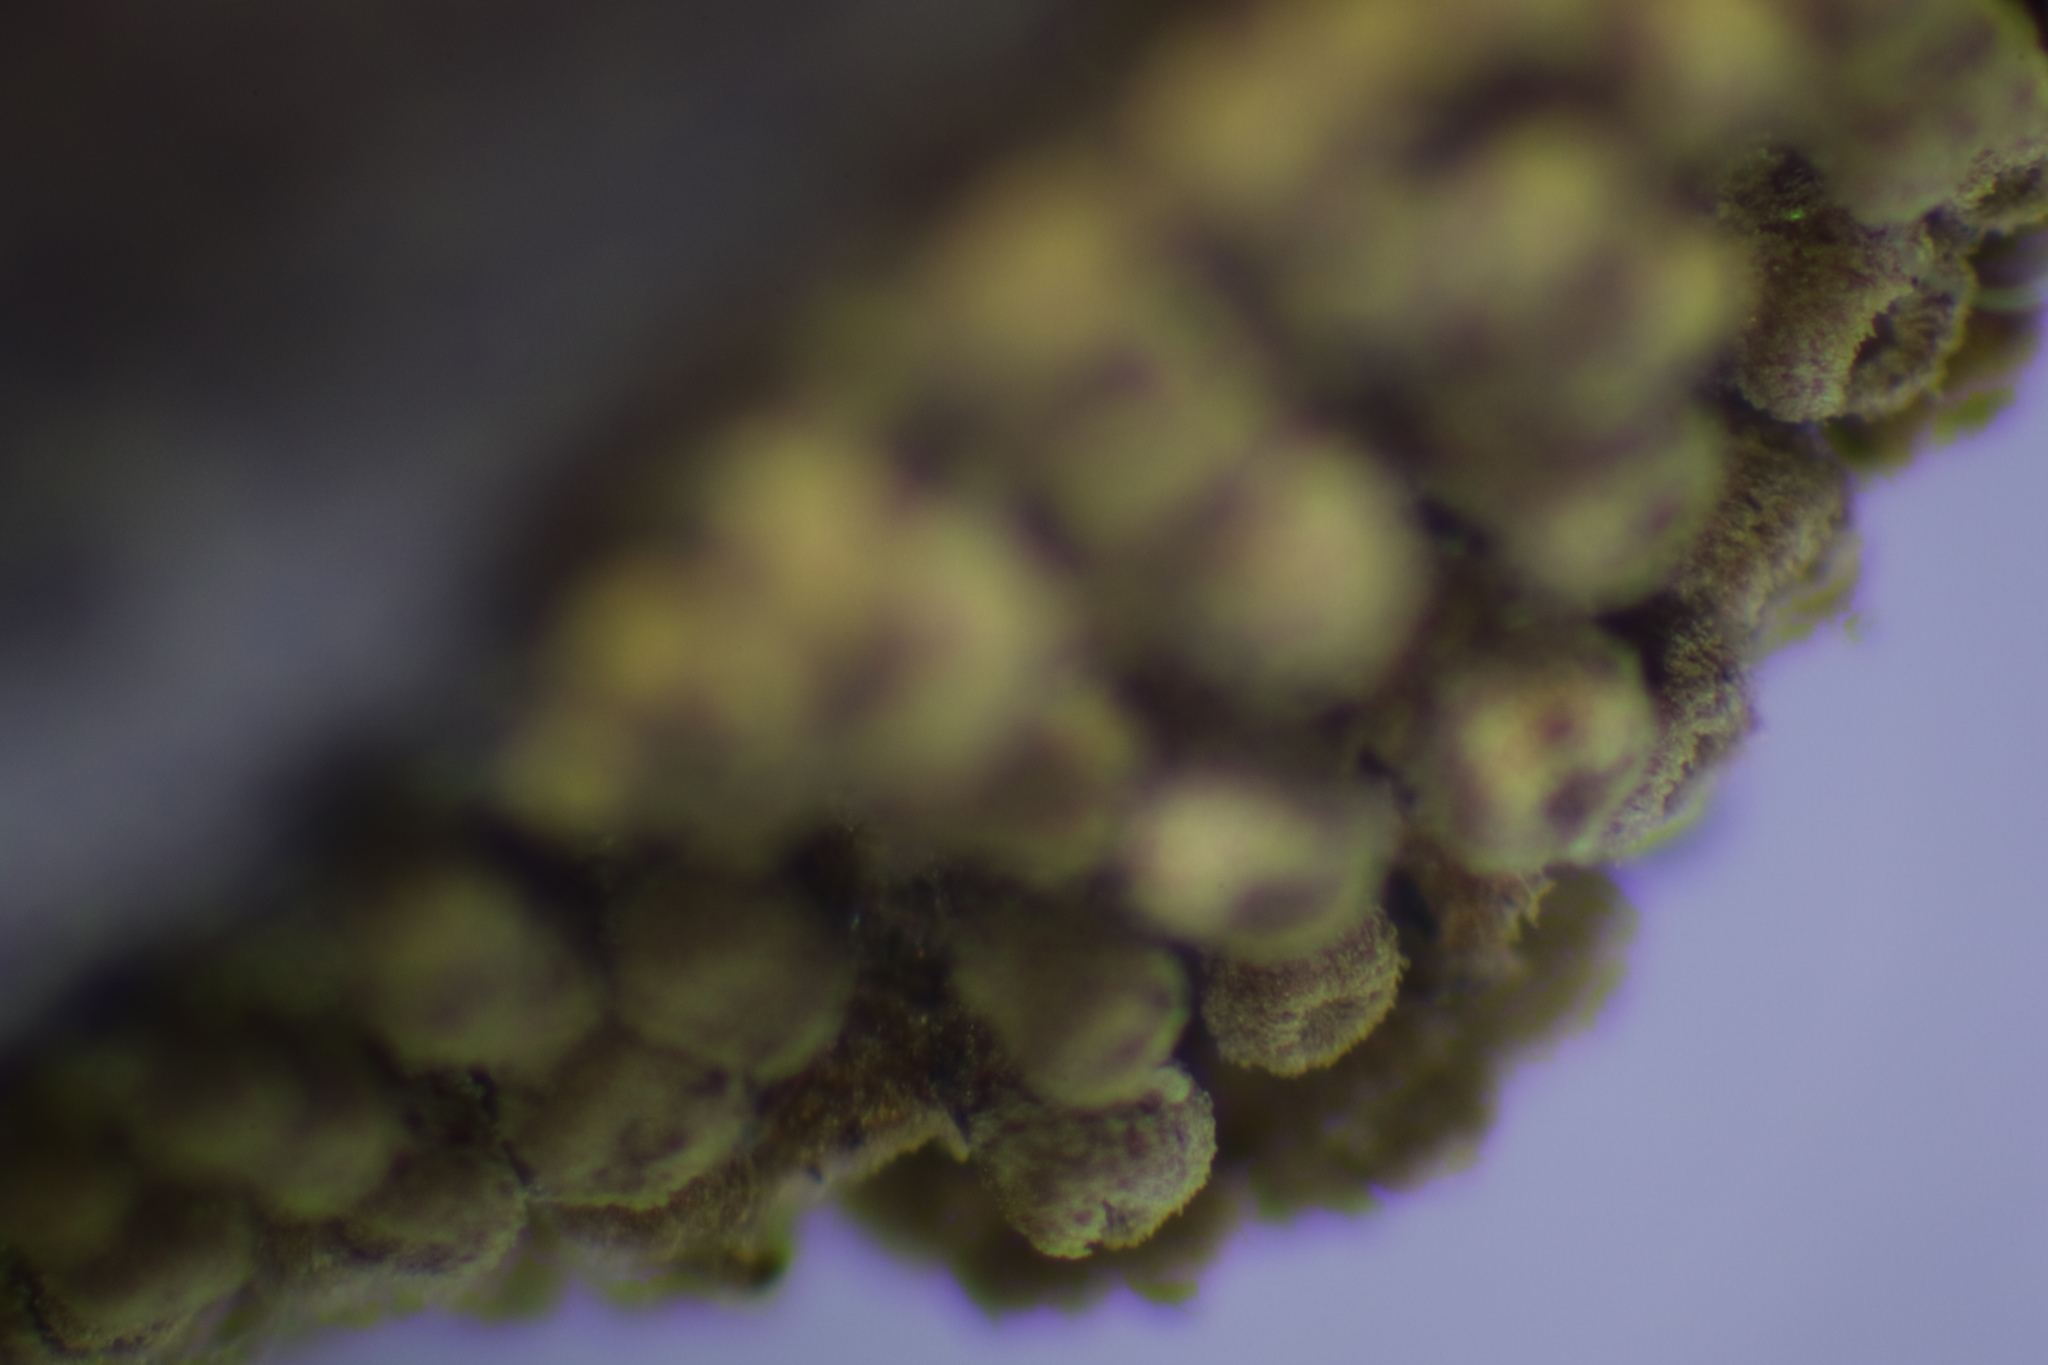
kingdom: Fungi
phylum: Basidiomycota
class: Agaricomycetes
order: Agaricales
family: Niaceae
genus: Merismodes
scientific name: Merismodes fasciculata
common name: Crowded cuplet
